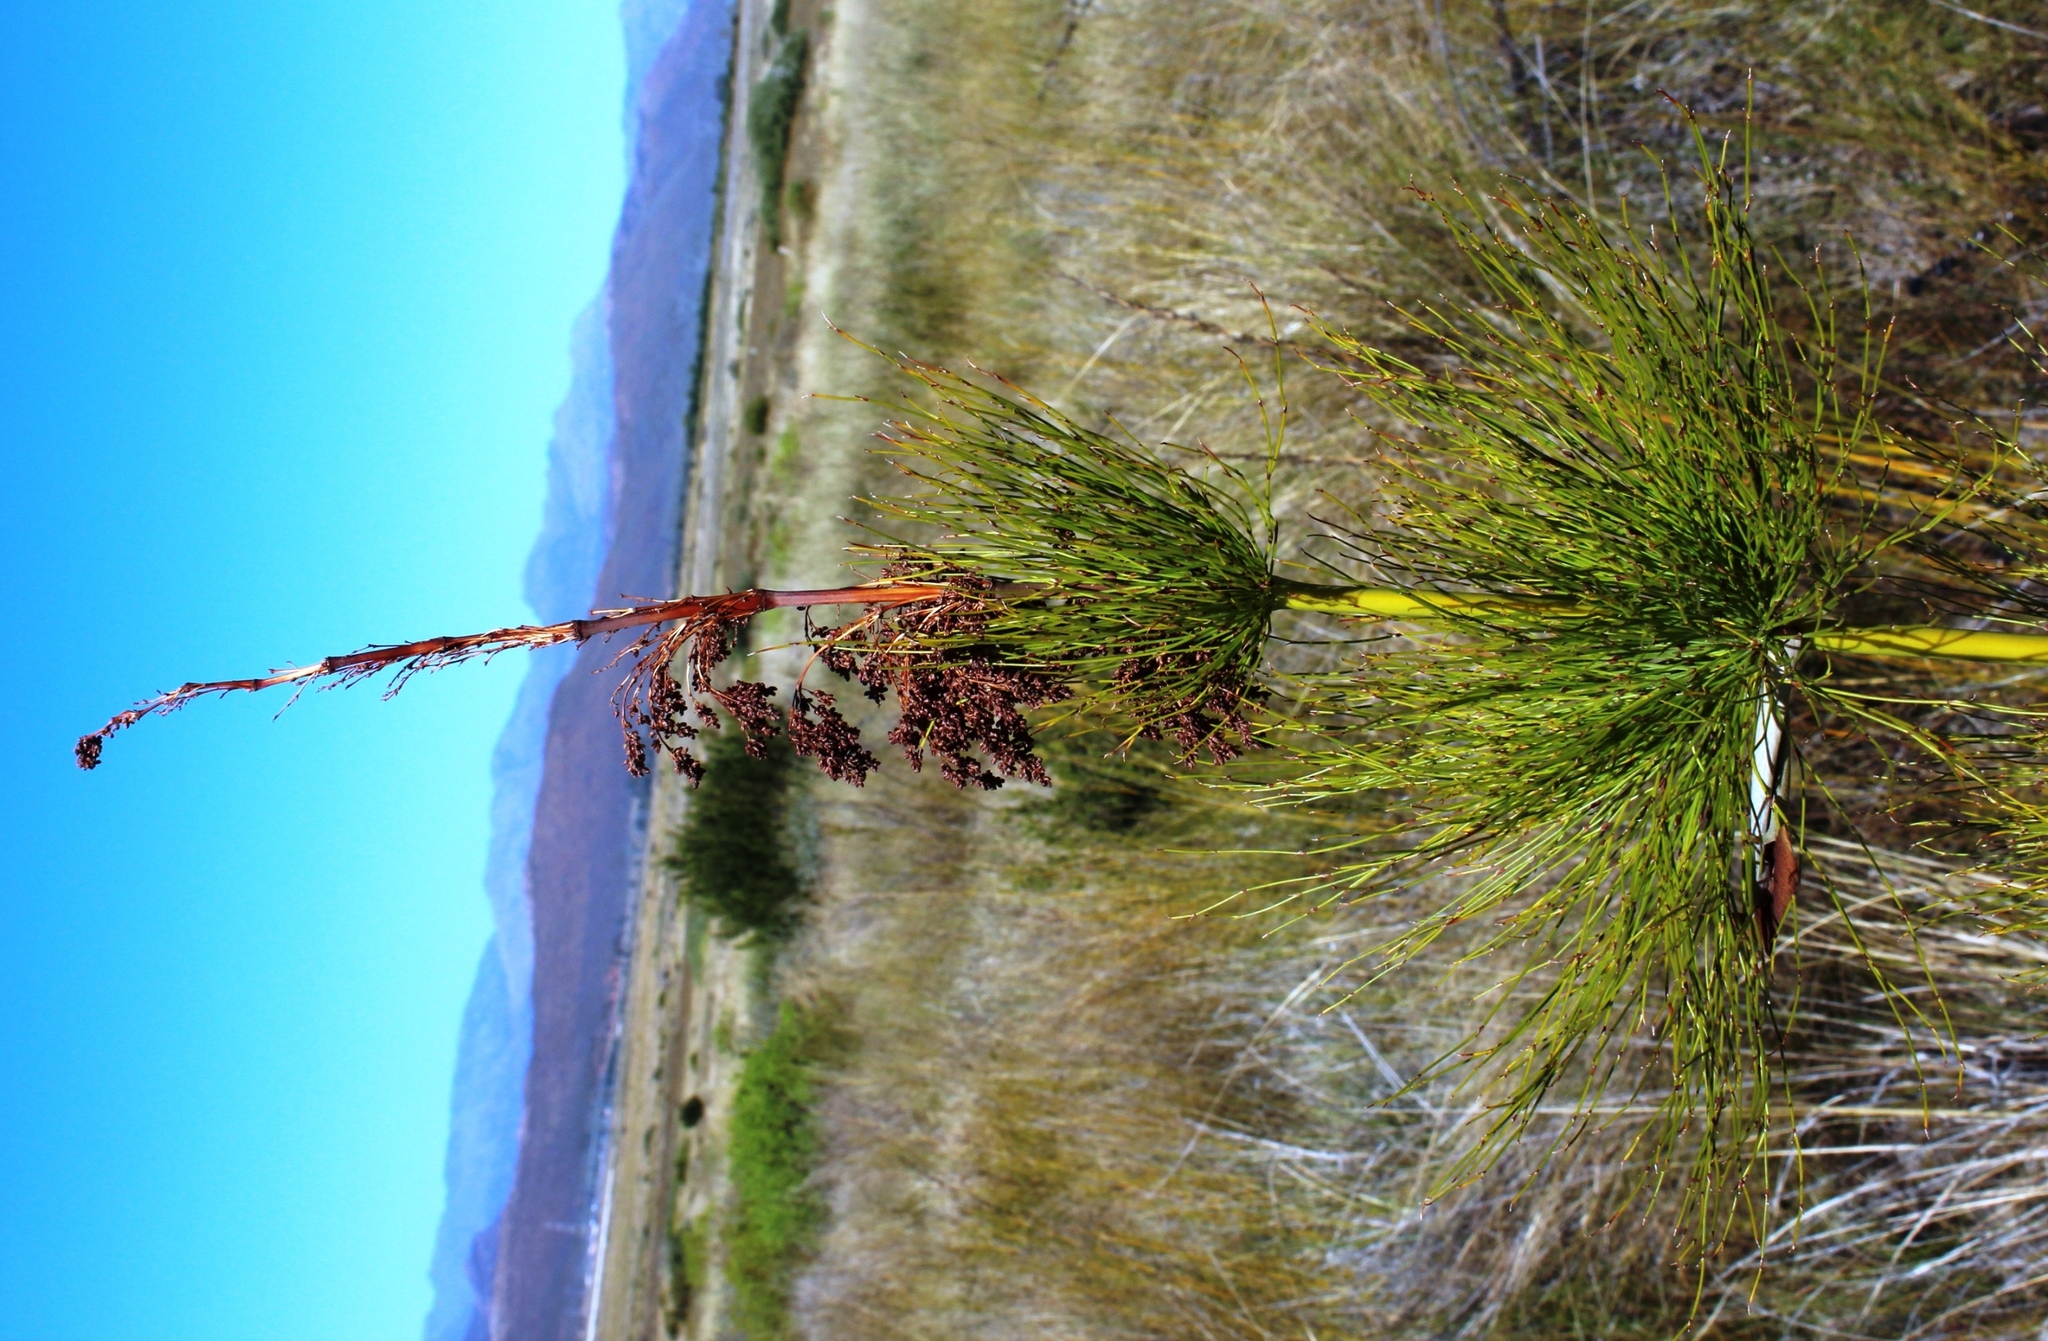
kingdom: Plantae
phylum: Tracheophyta
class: Liliopsida
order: Poales
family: Restionaceae
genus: Elegia
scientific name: Elegia capensis
